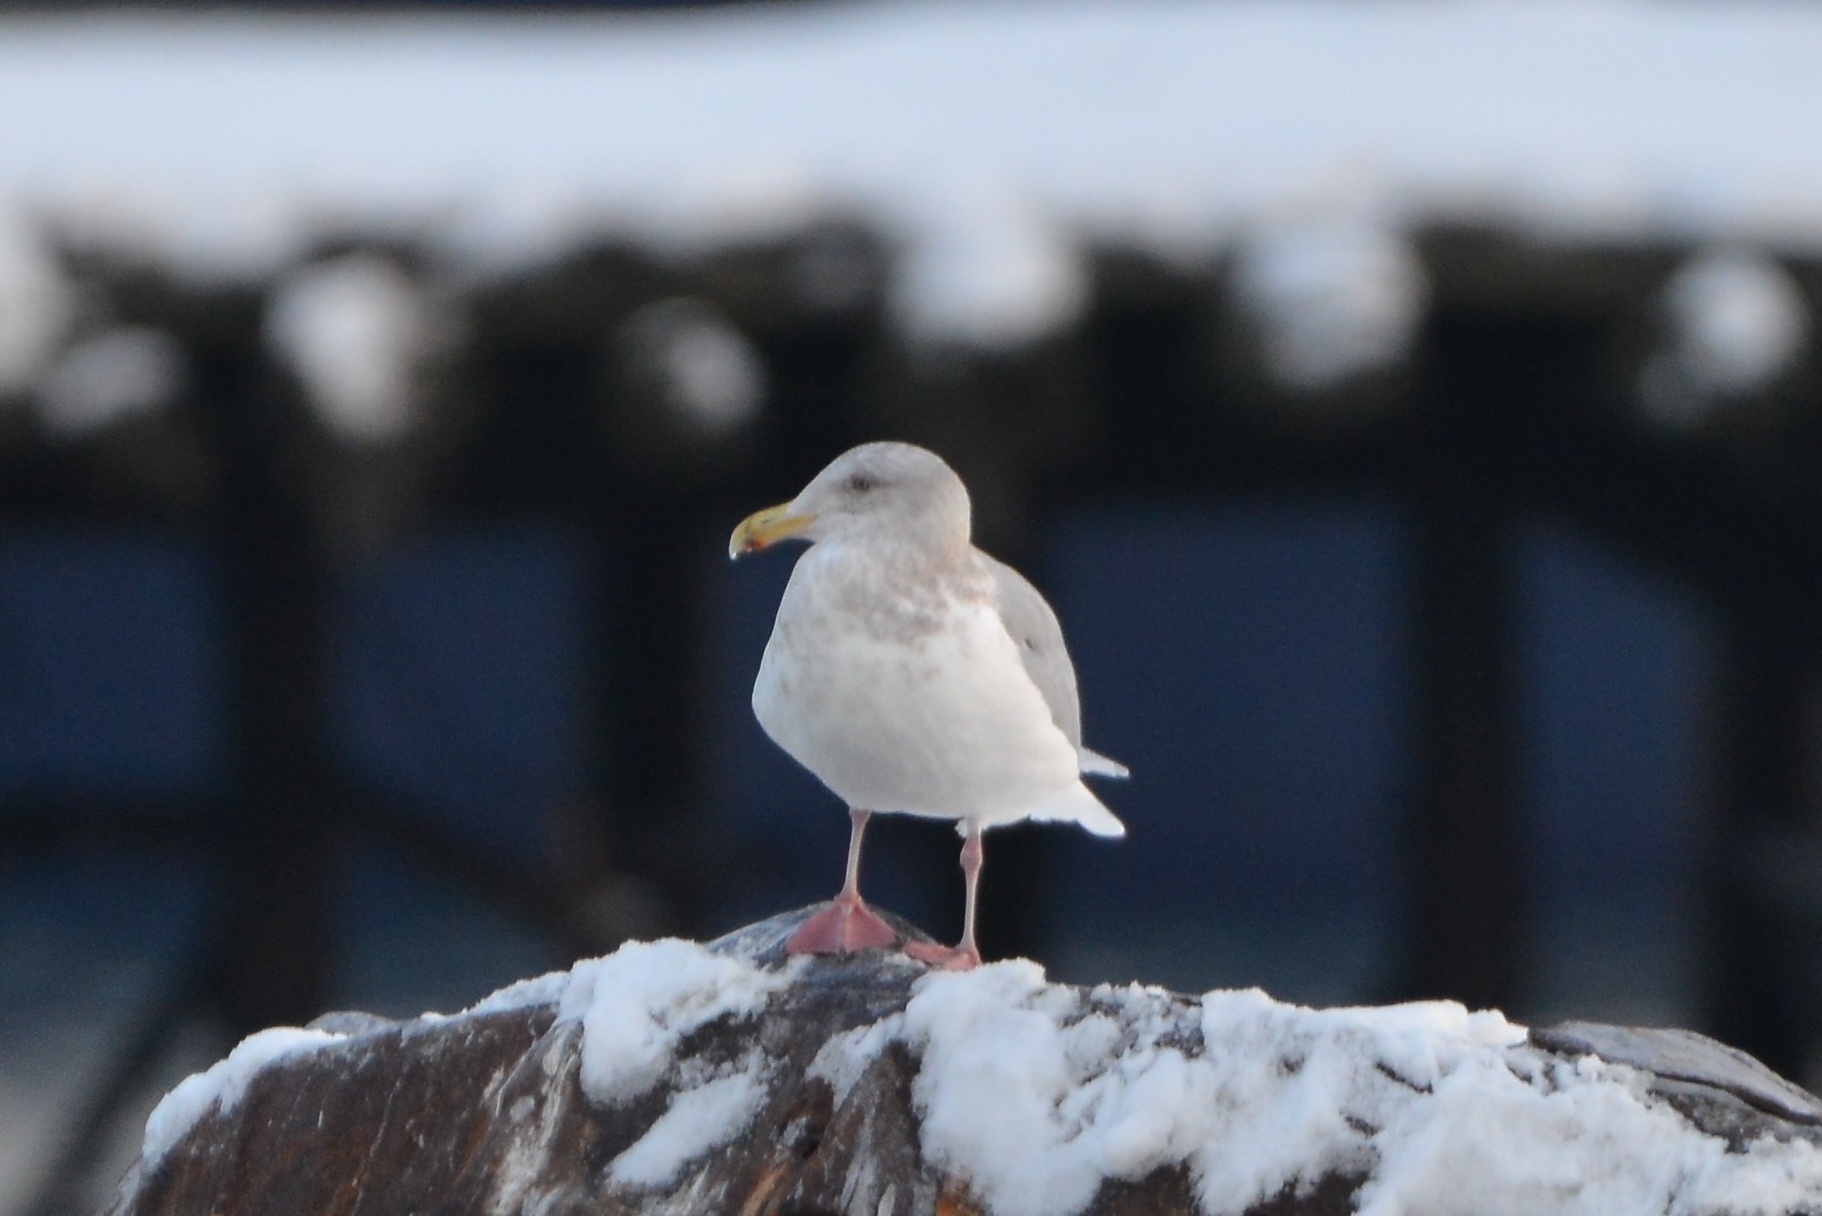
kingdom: Animalia
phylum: Chordata
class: Aves
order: Charadriiformes
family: Laridae
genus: Larus
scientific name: Larus glaucescens
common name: Glaucous-winged gull
